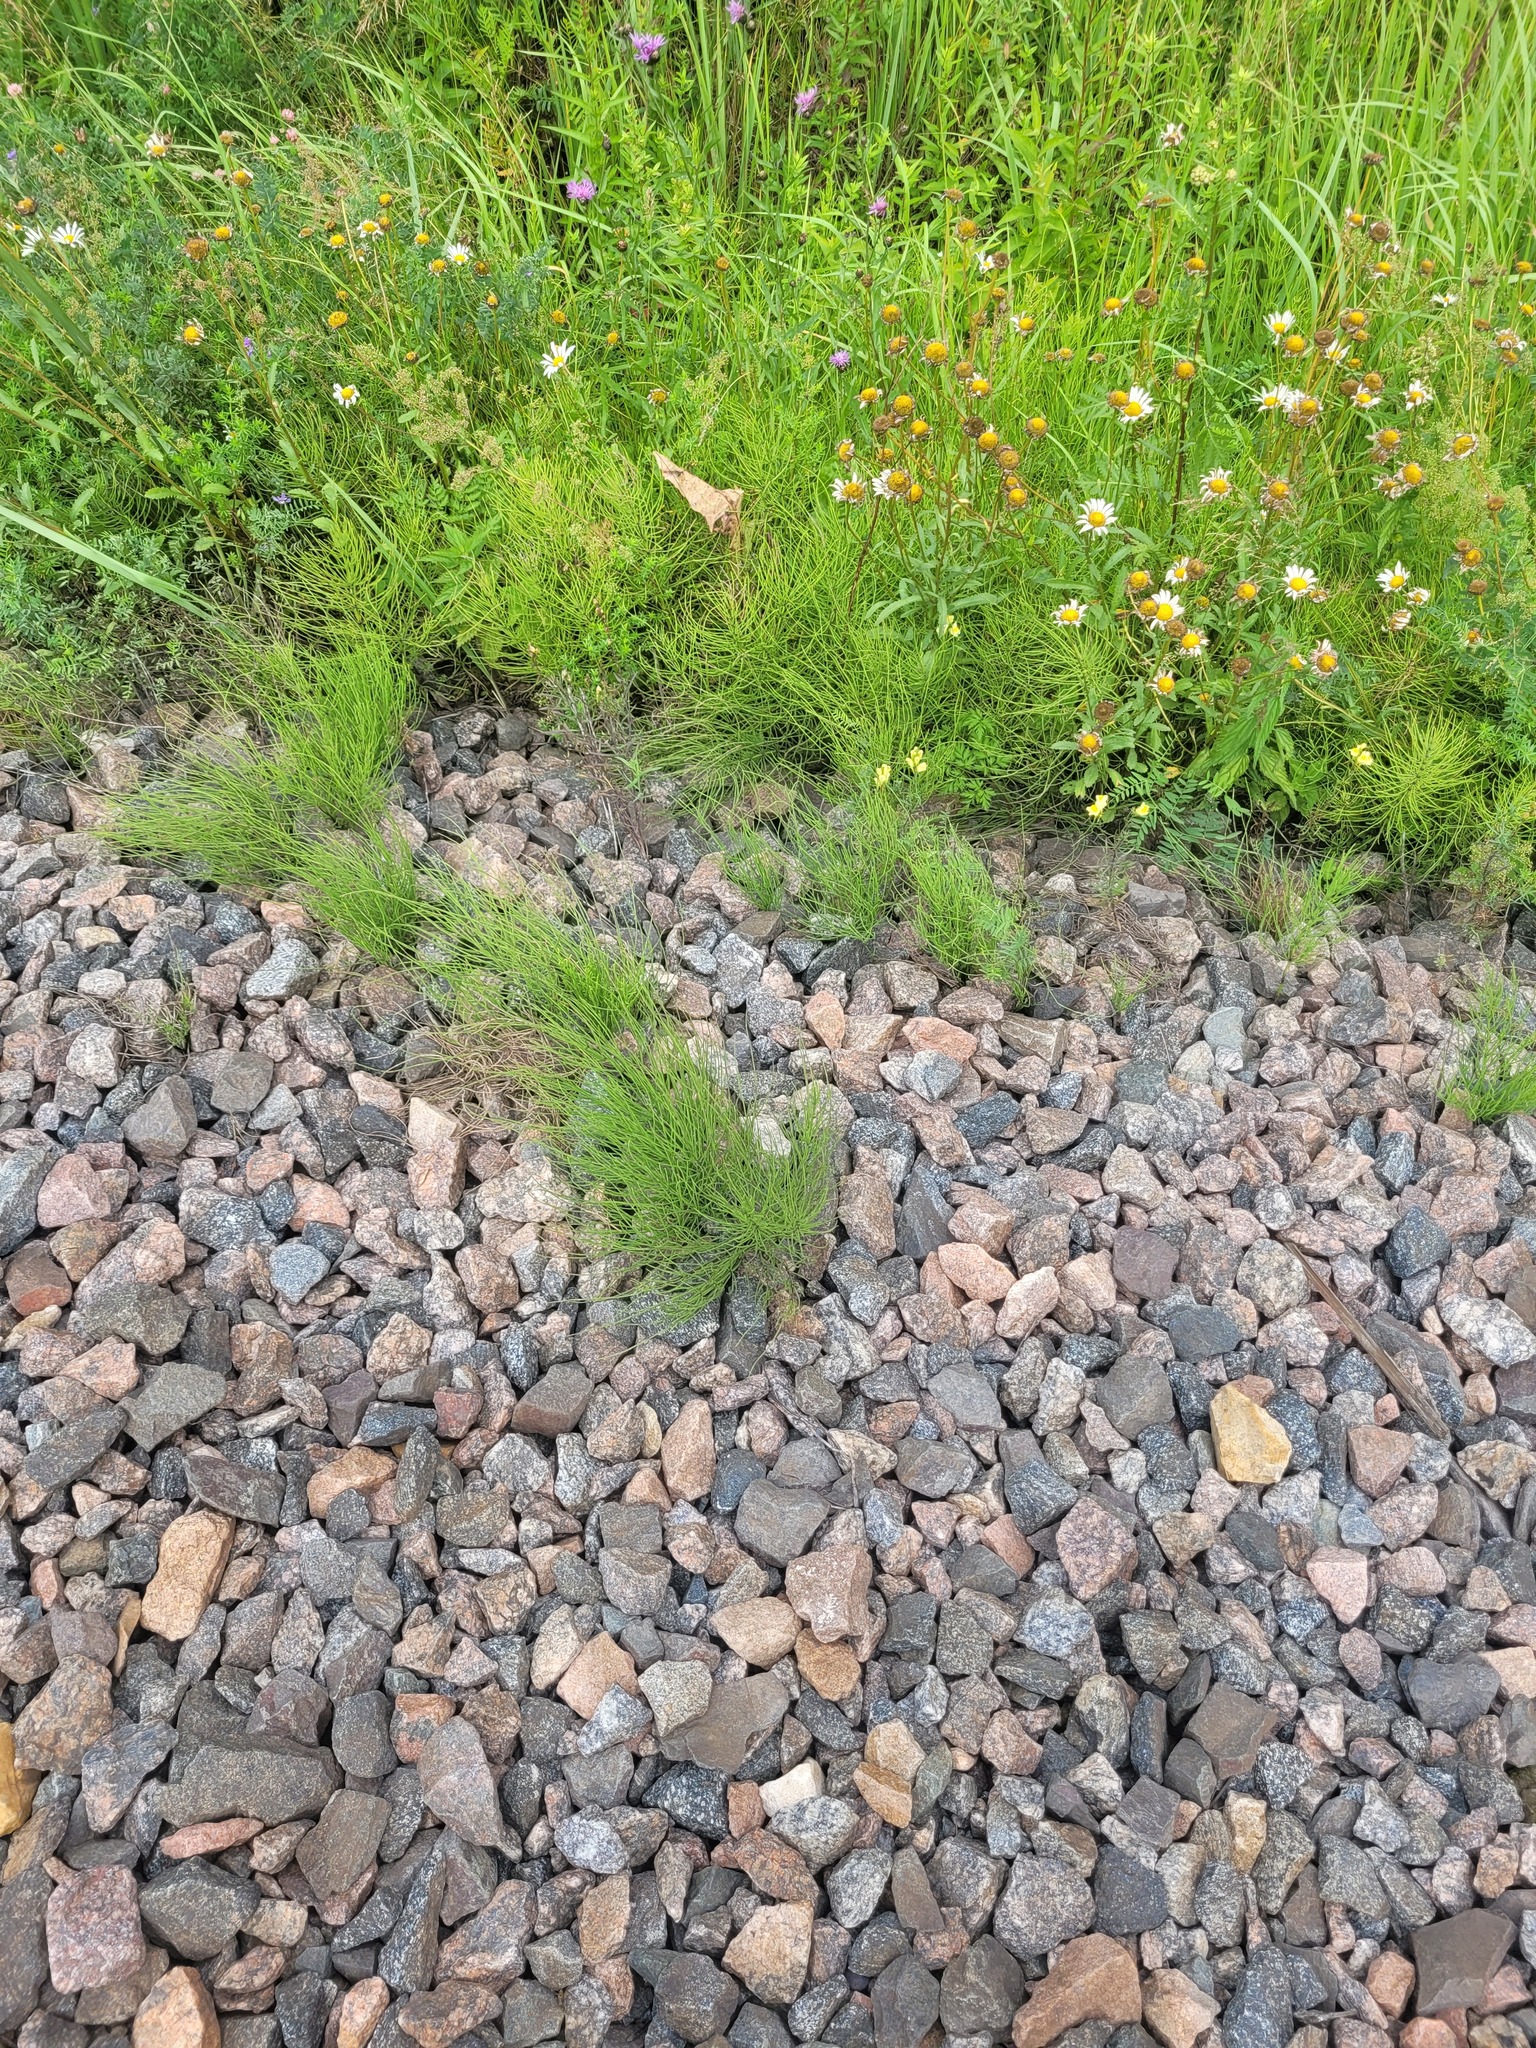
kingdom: Plantae
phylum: Tracheophyta
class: Polypodiopsida
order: Equisetales
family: Equisetaceae
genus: Equisetum
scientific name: Equisetum arvense
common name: Field horsetail
